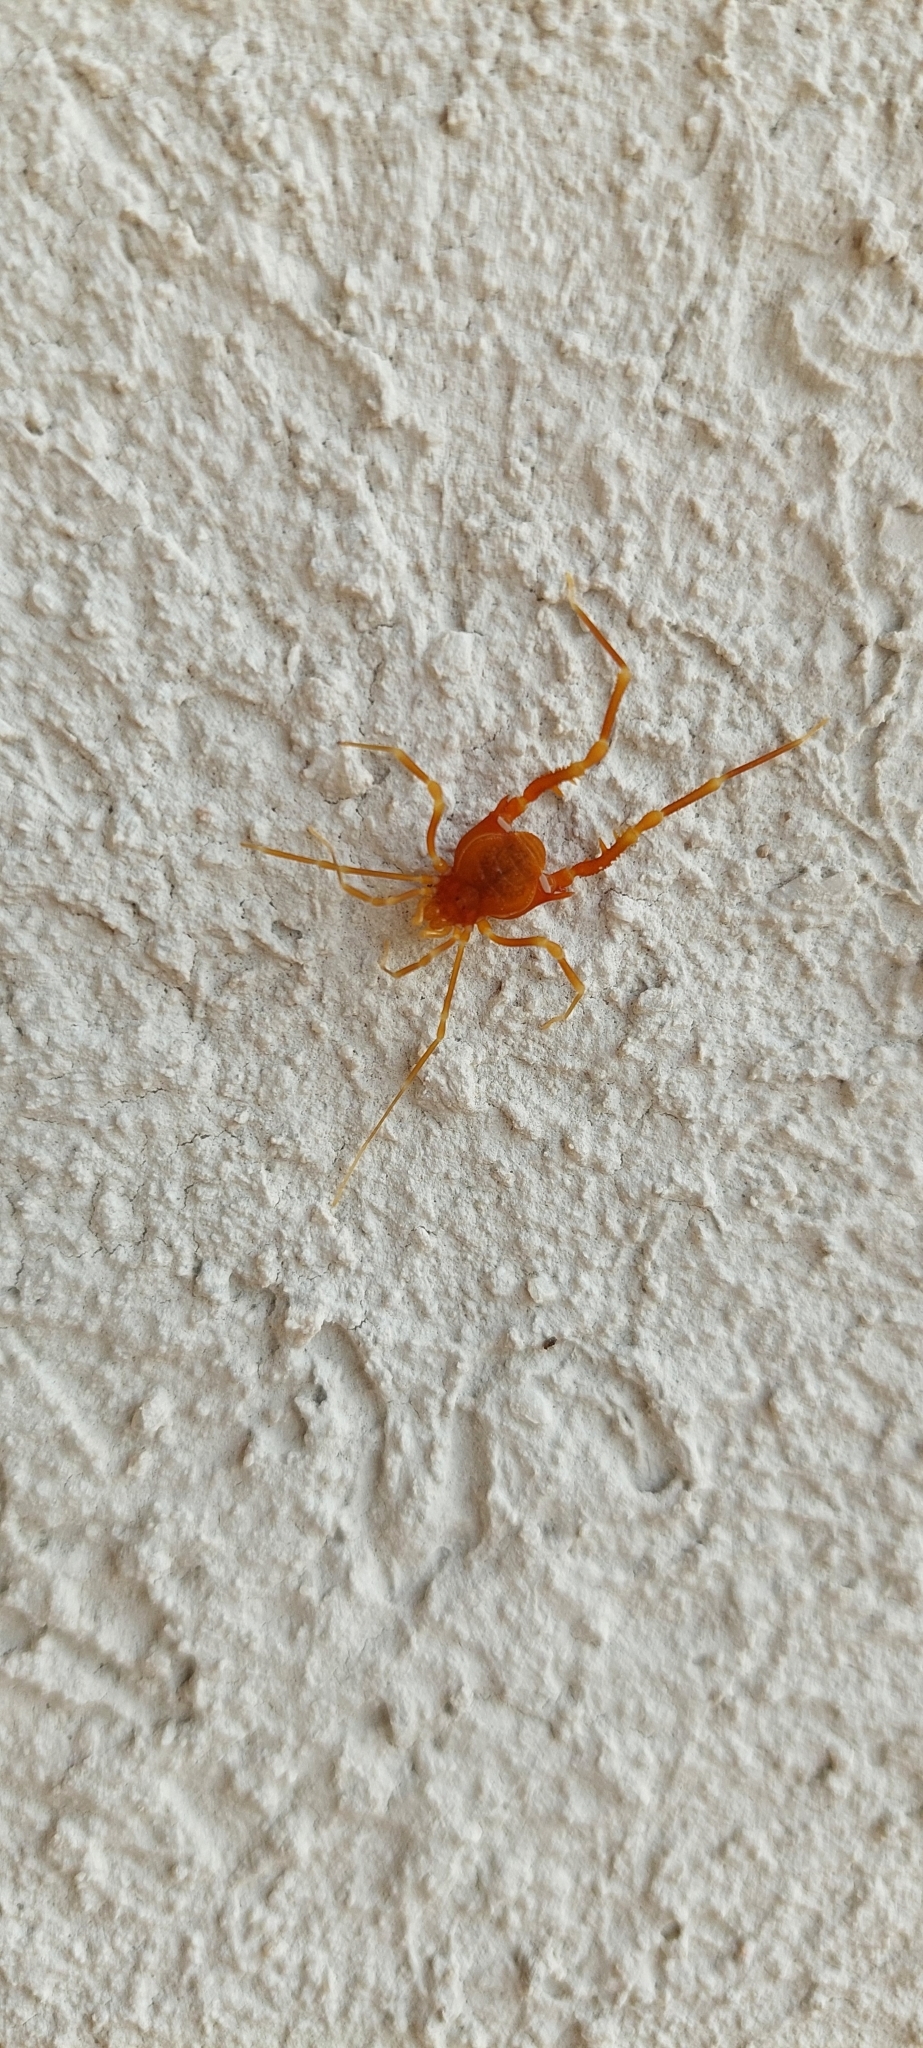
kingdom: Animalia
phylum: Arthropoda
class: Arachnida
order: Opiliones
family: Gonyleptidae
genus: Neopucroliella
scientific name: Neopucroliella mesembrina
